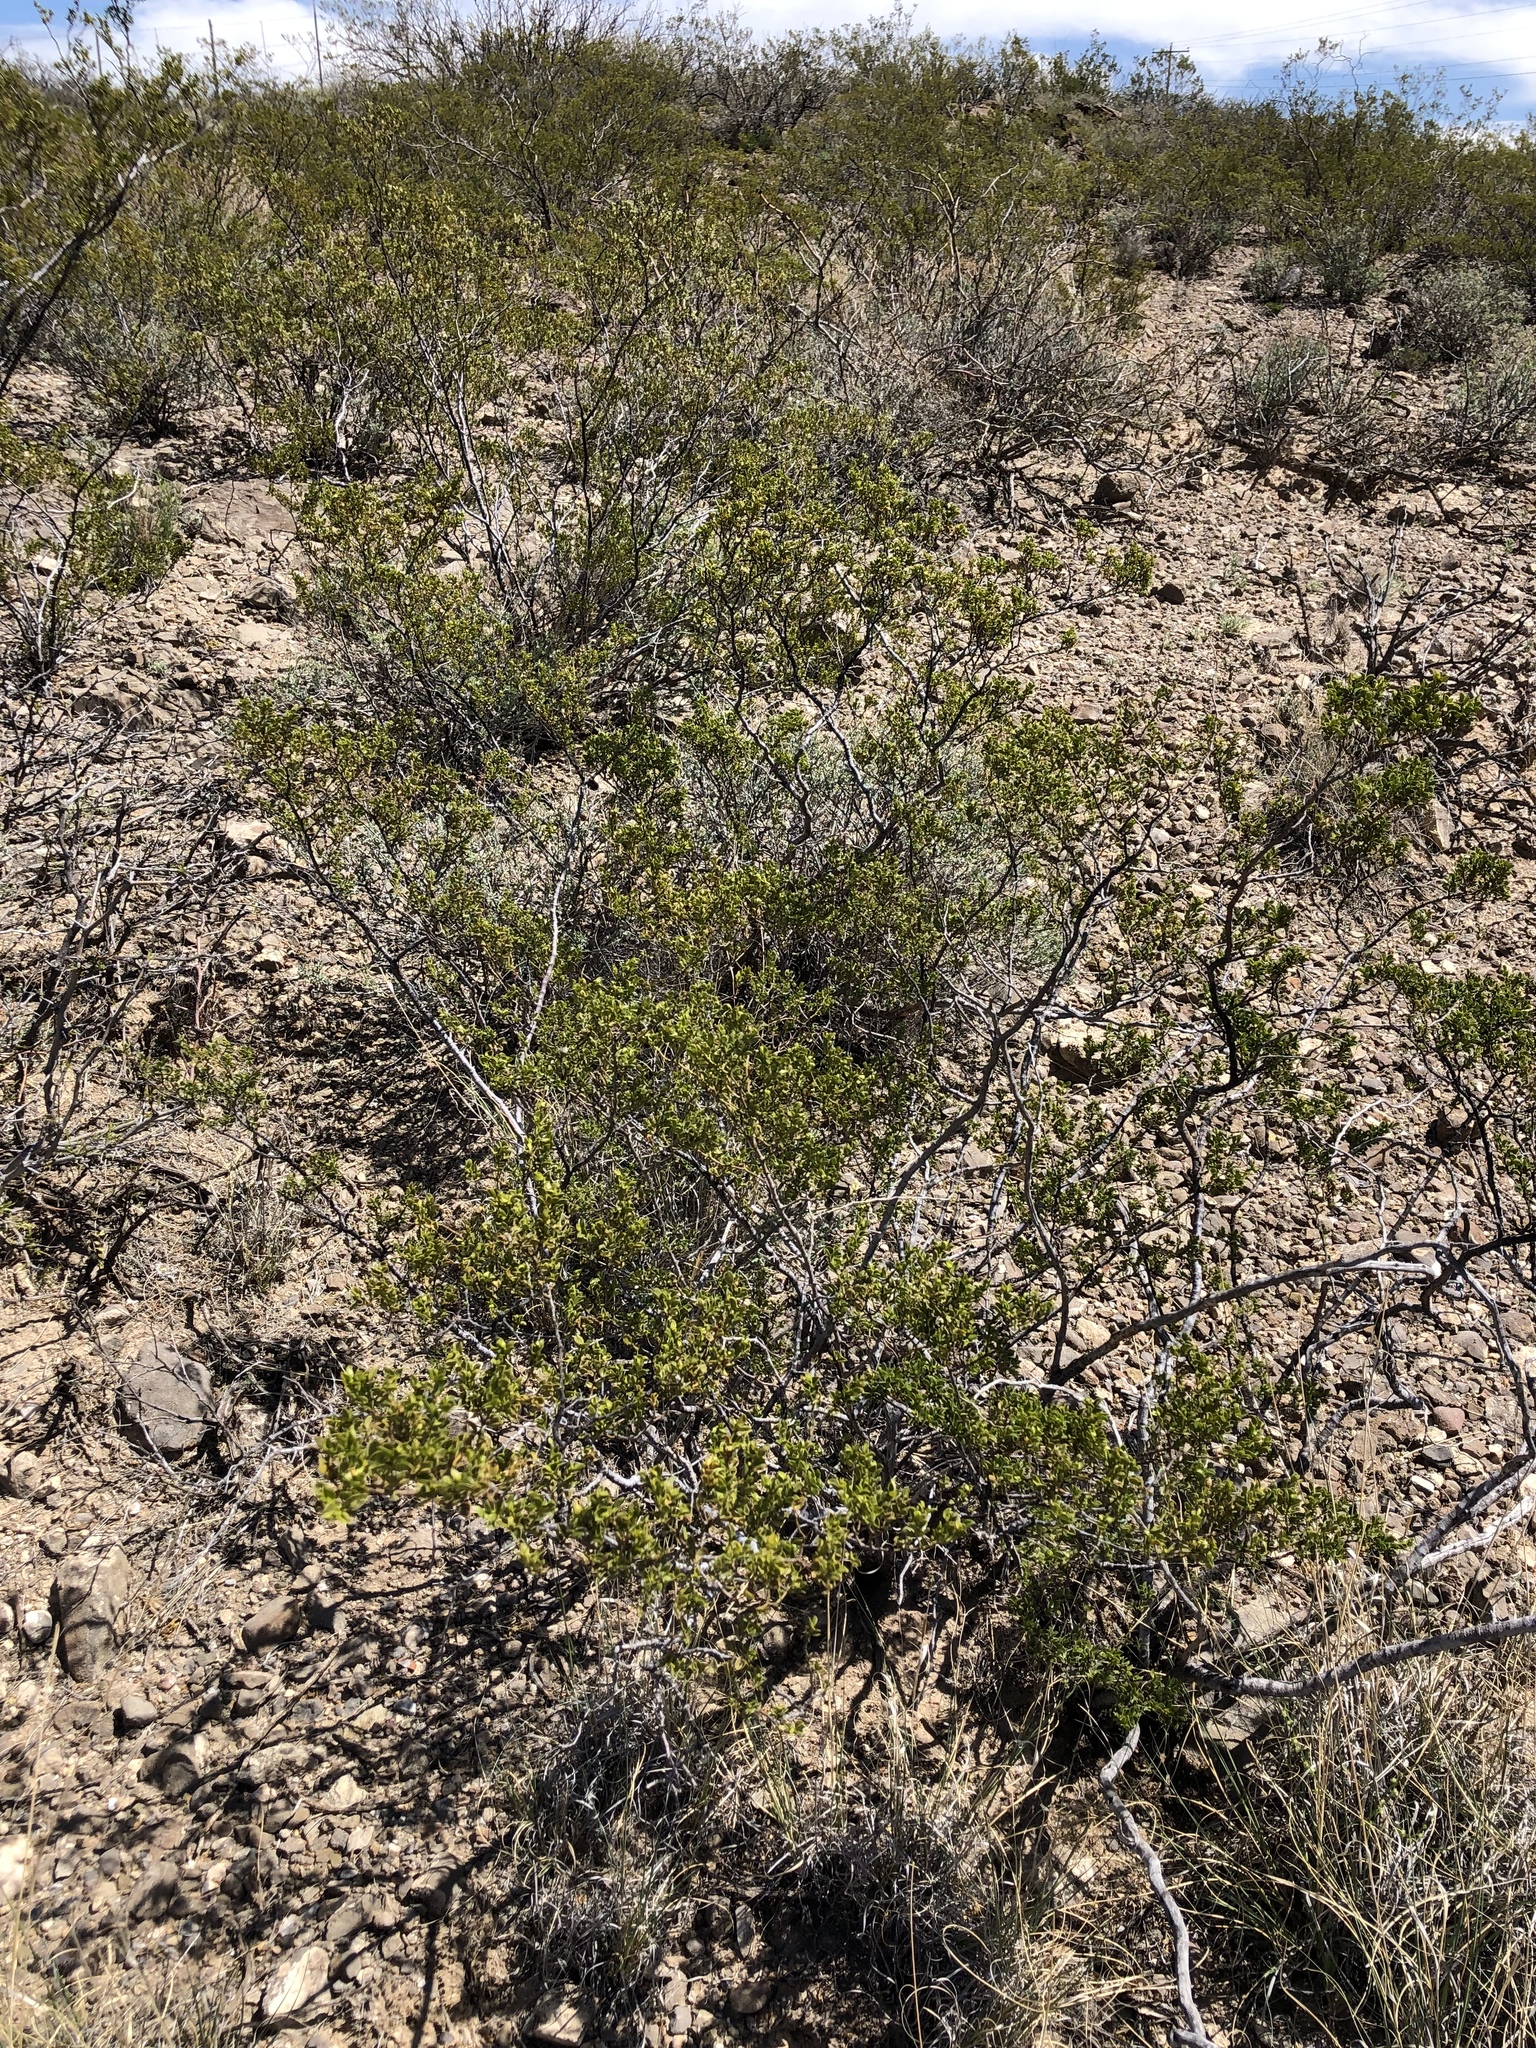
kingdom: Plantae
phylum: Tracheophyta
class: Magnoliopsida
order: Zygophyllales
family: Zygophyllaceae
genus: Larrea
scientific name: Larrea tridentata
